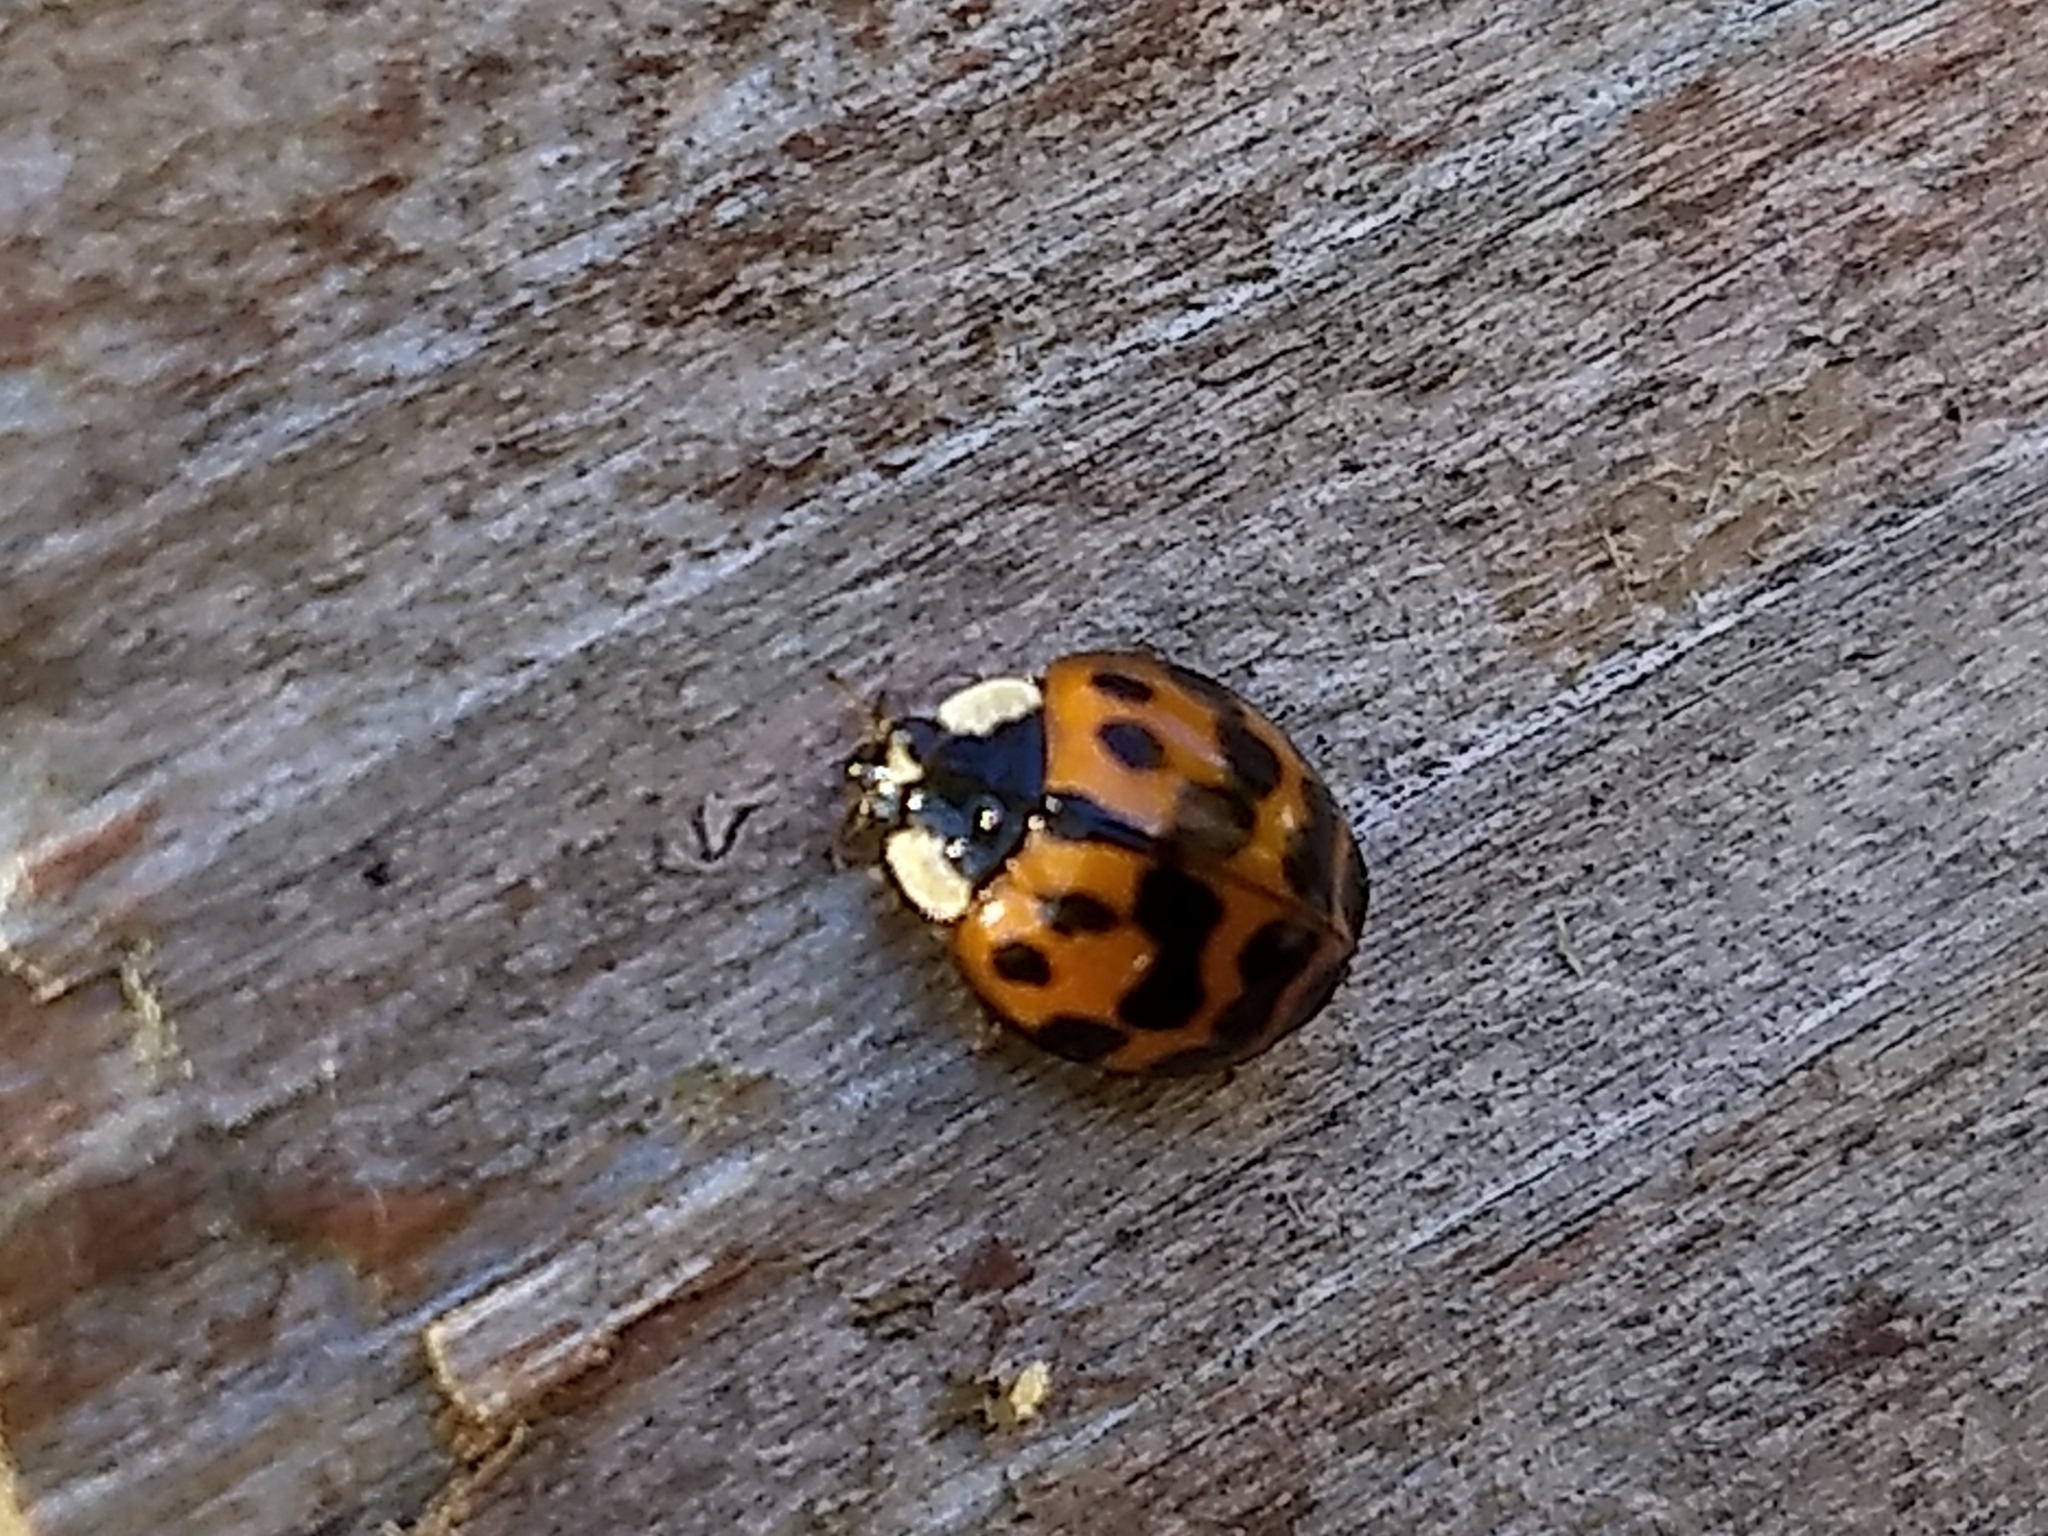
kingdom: Animalia
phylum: Arthropoda
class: Insecta
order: Coleoptera
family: Coccinellidae
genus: Harmonia
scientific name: Harmonia axyridis
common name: Harlequin ladybird
